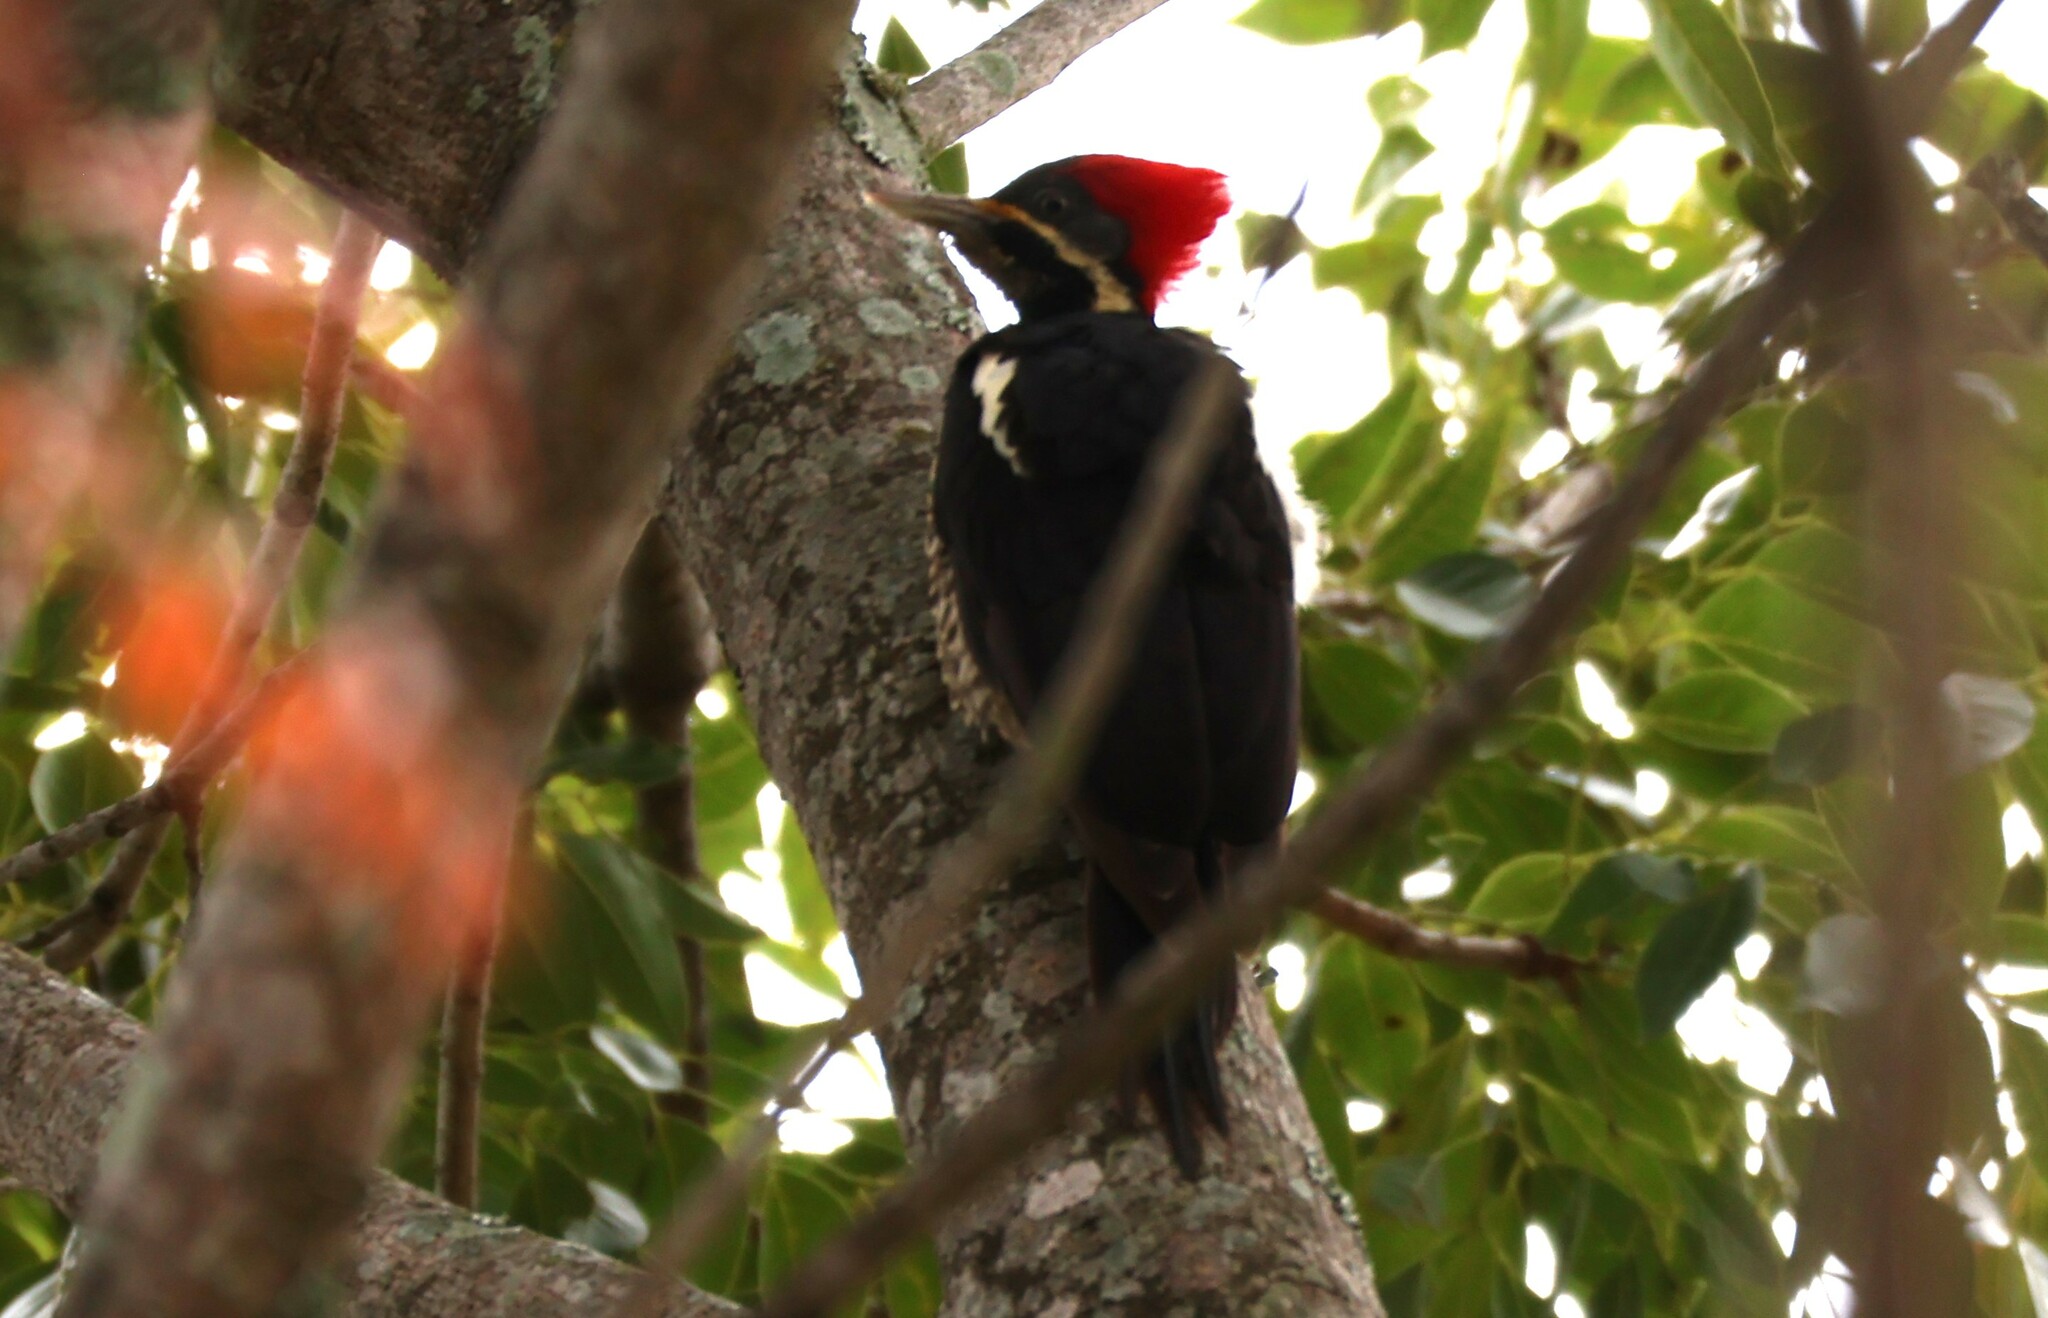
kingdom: Animalia
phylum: Chordata
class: Aves
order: Piciformes
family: Picidae
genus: Dryocopus
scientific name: Dryocopus lineatus
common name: Lineated woodpecker
